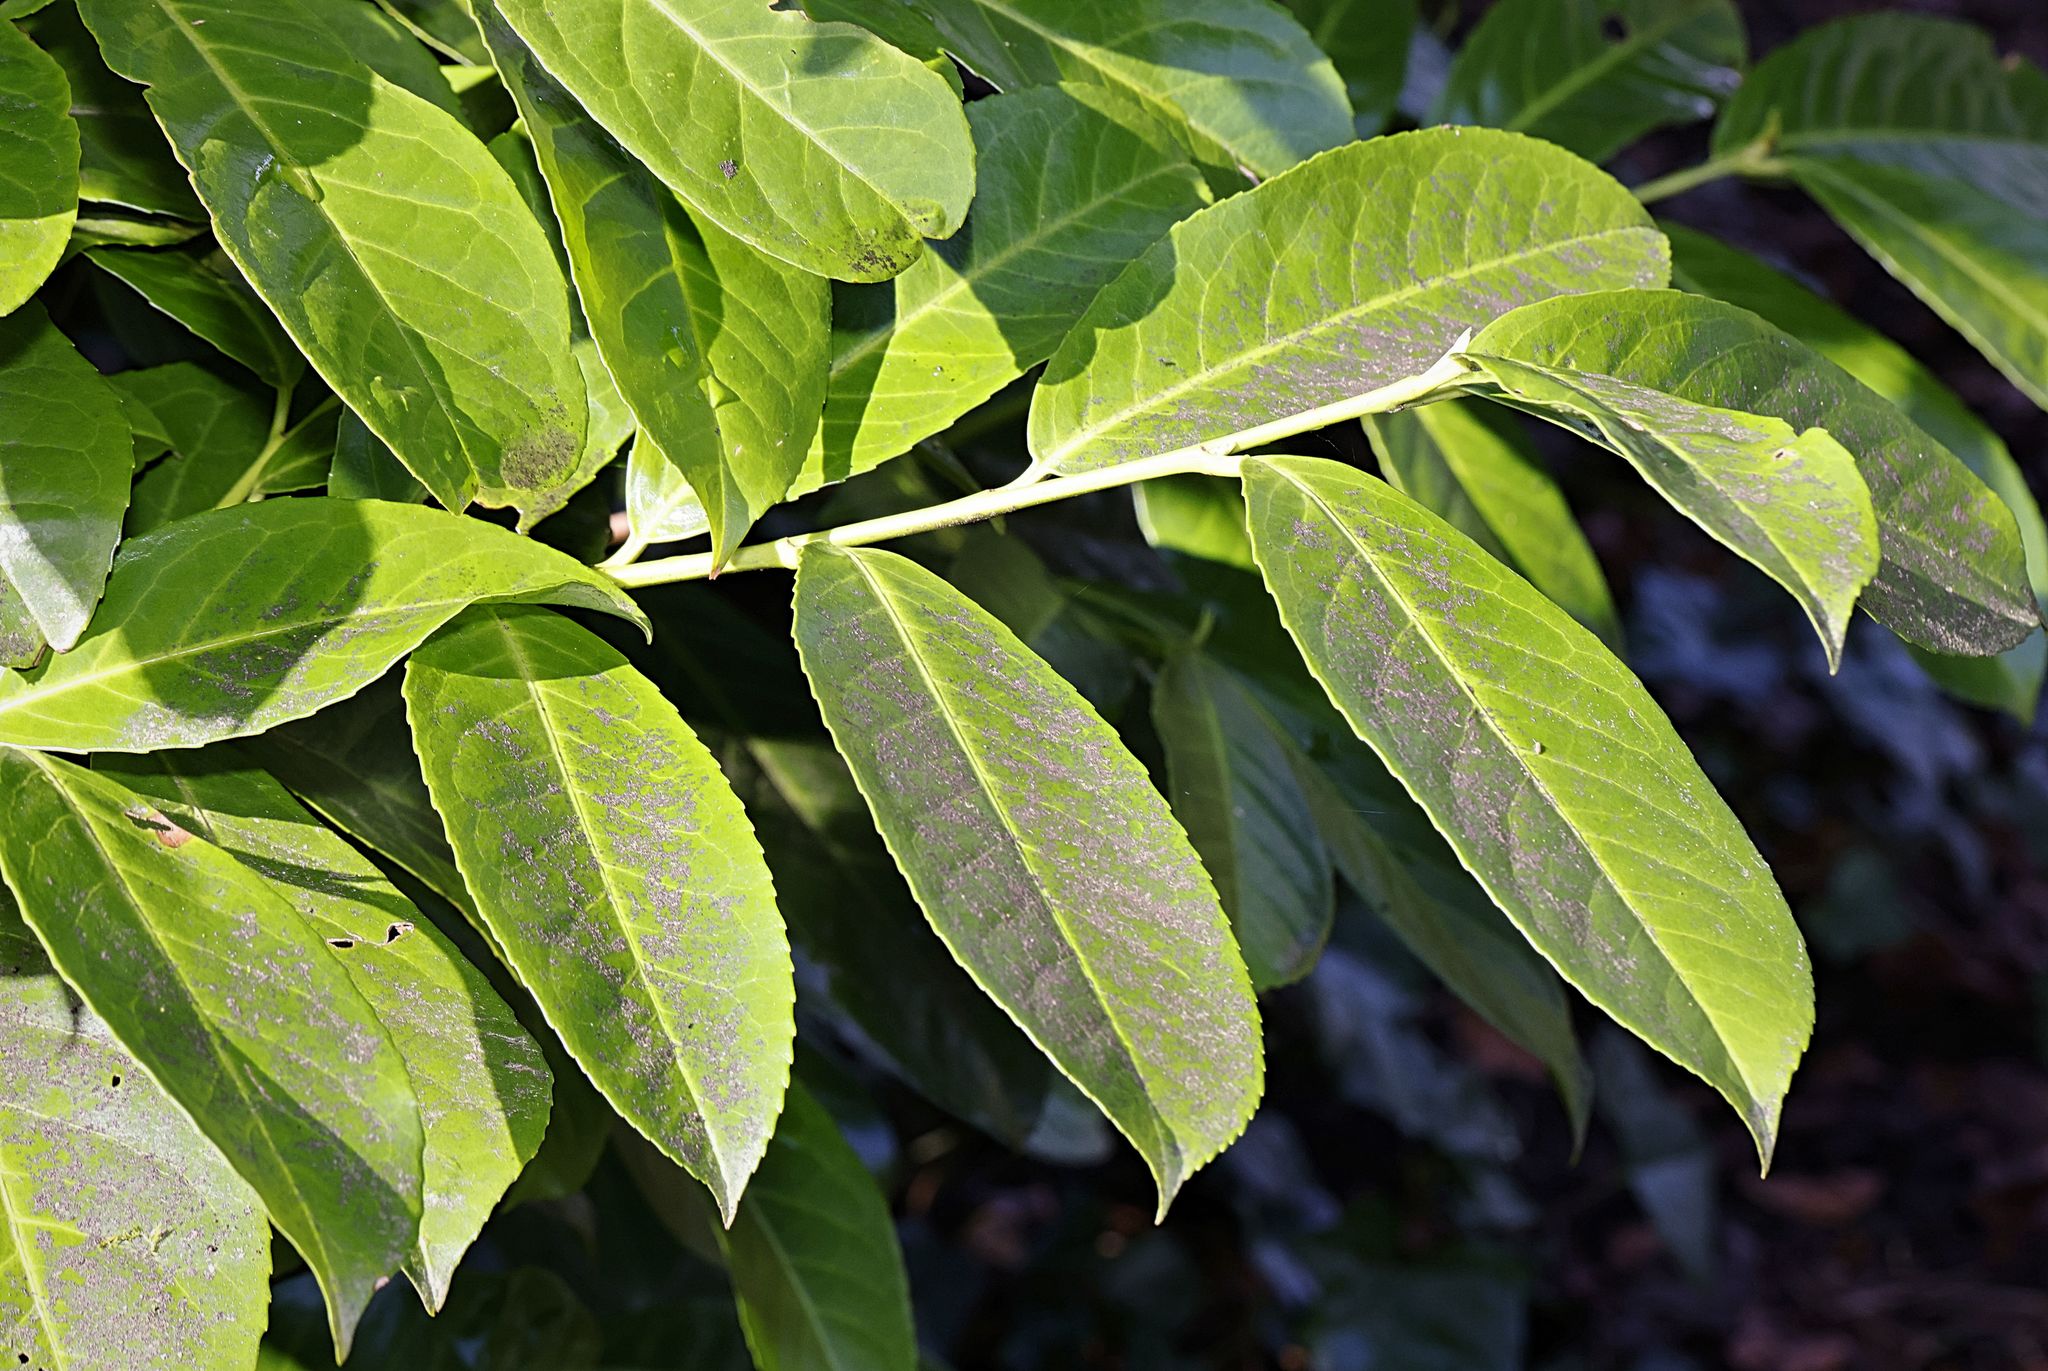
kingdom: Plantae
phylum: Tracheophyta
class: Magnoliopsida
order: Rosales
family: Rosaceae
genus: Prunus
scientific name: Prunus laurocerasus
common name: Cherry laurel
